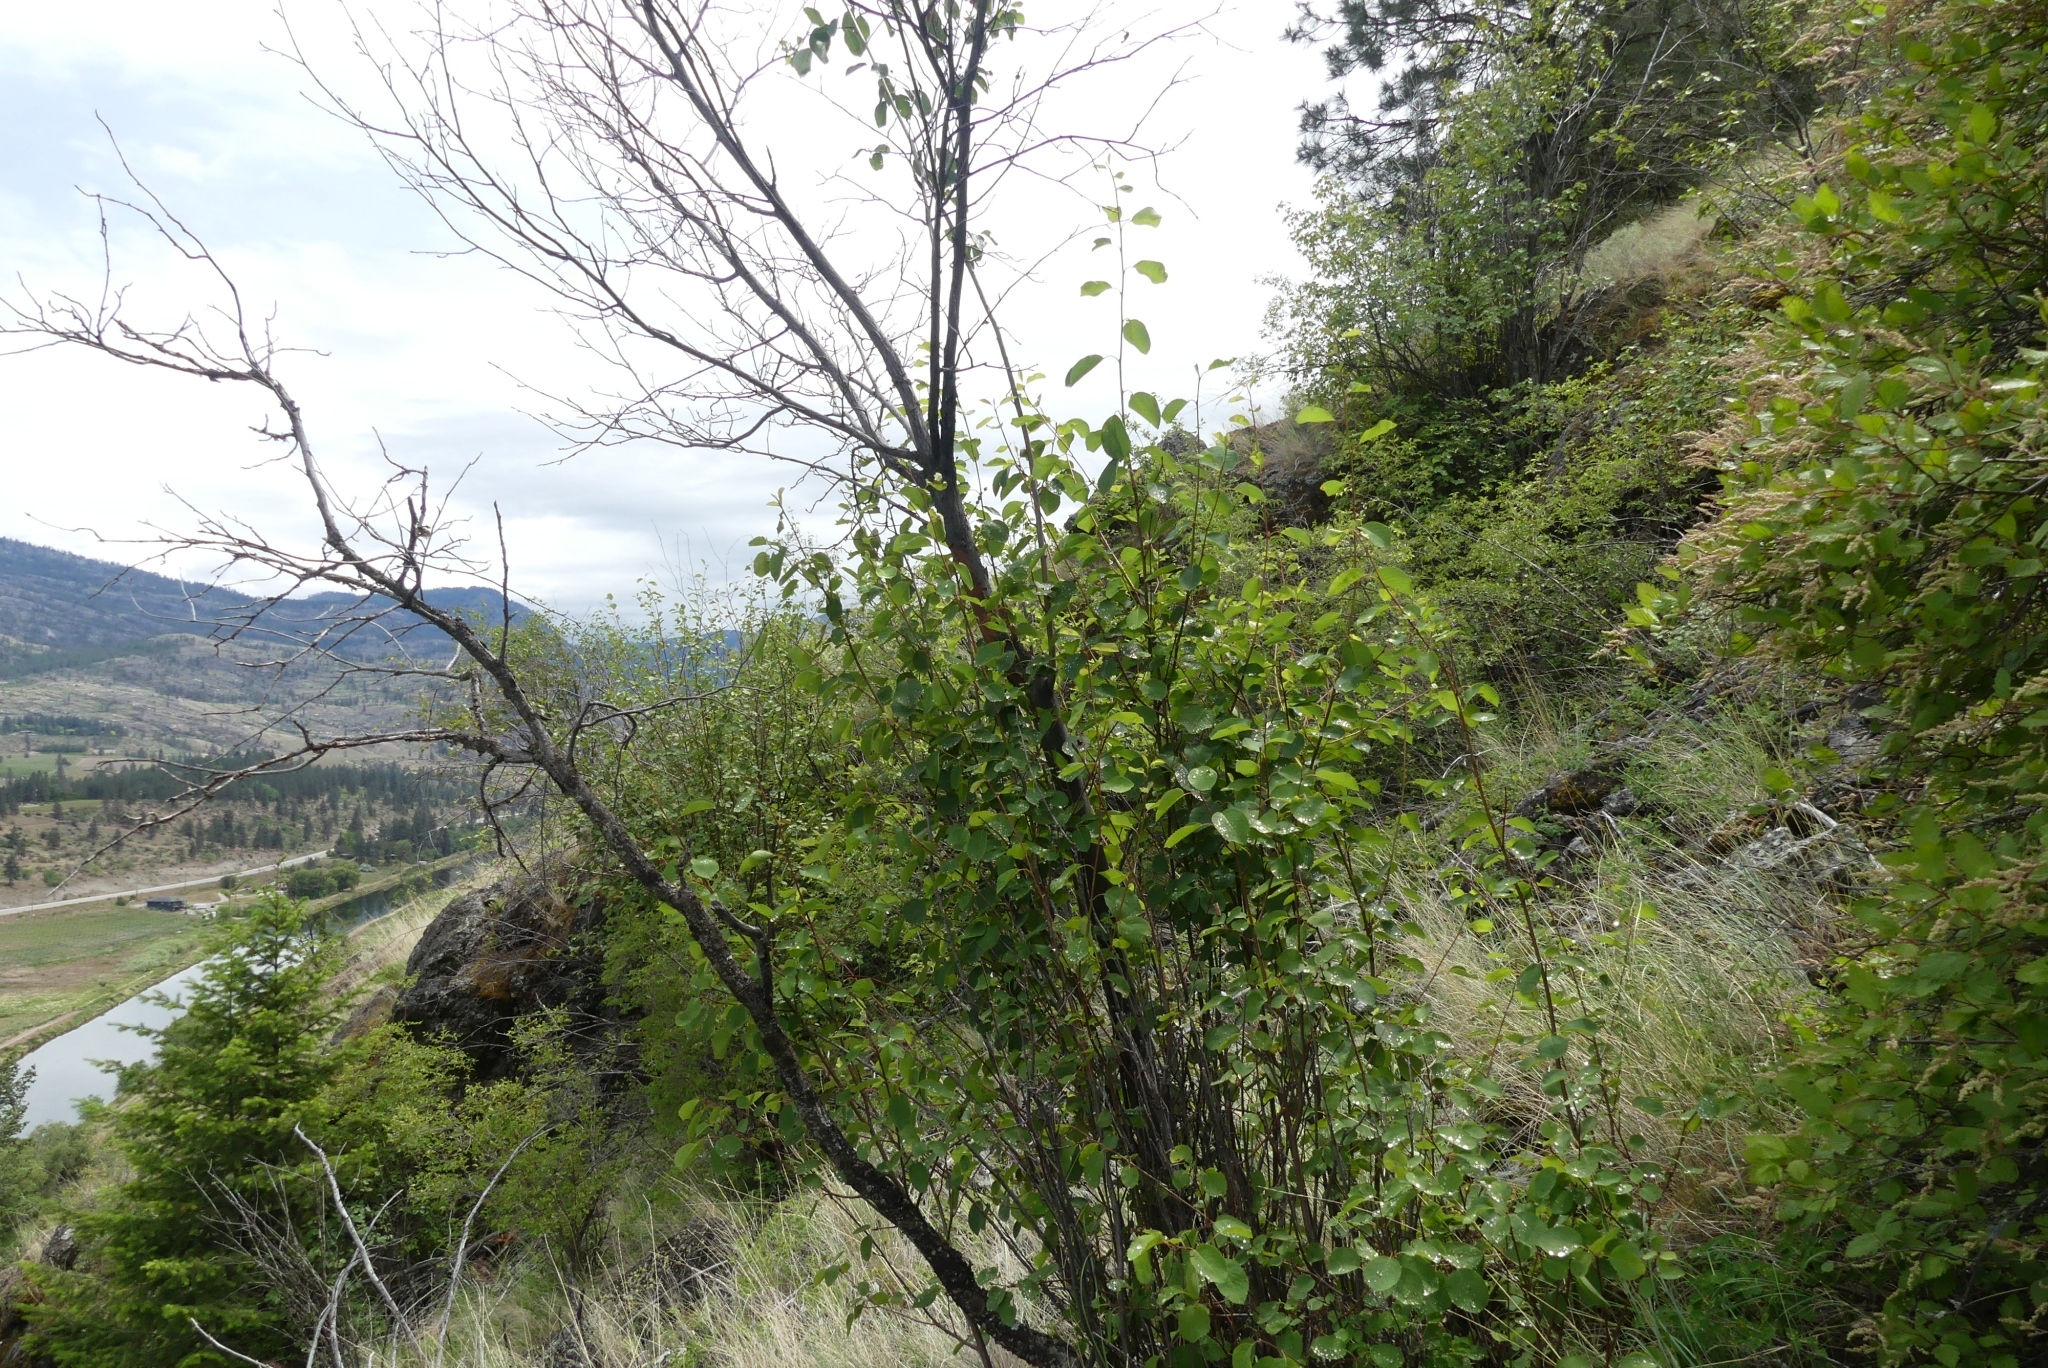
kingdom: Plantae
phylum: Tracheophyta
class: Magnoliopsida
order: Rosales
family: Rosaceae
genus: Amelanchier
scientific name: Amelanchier alnifolia
